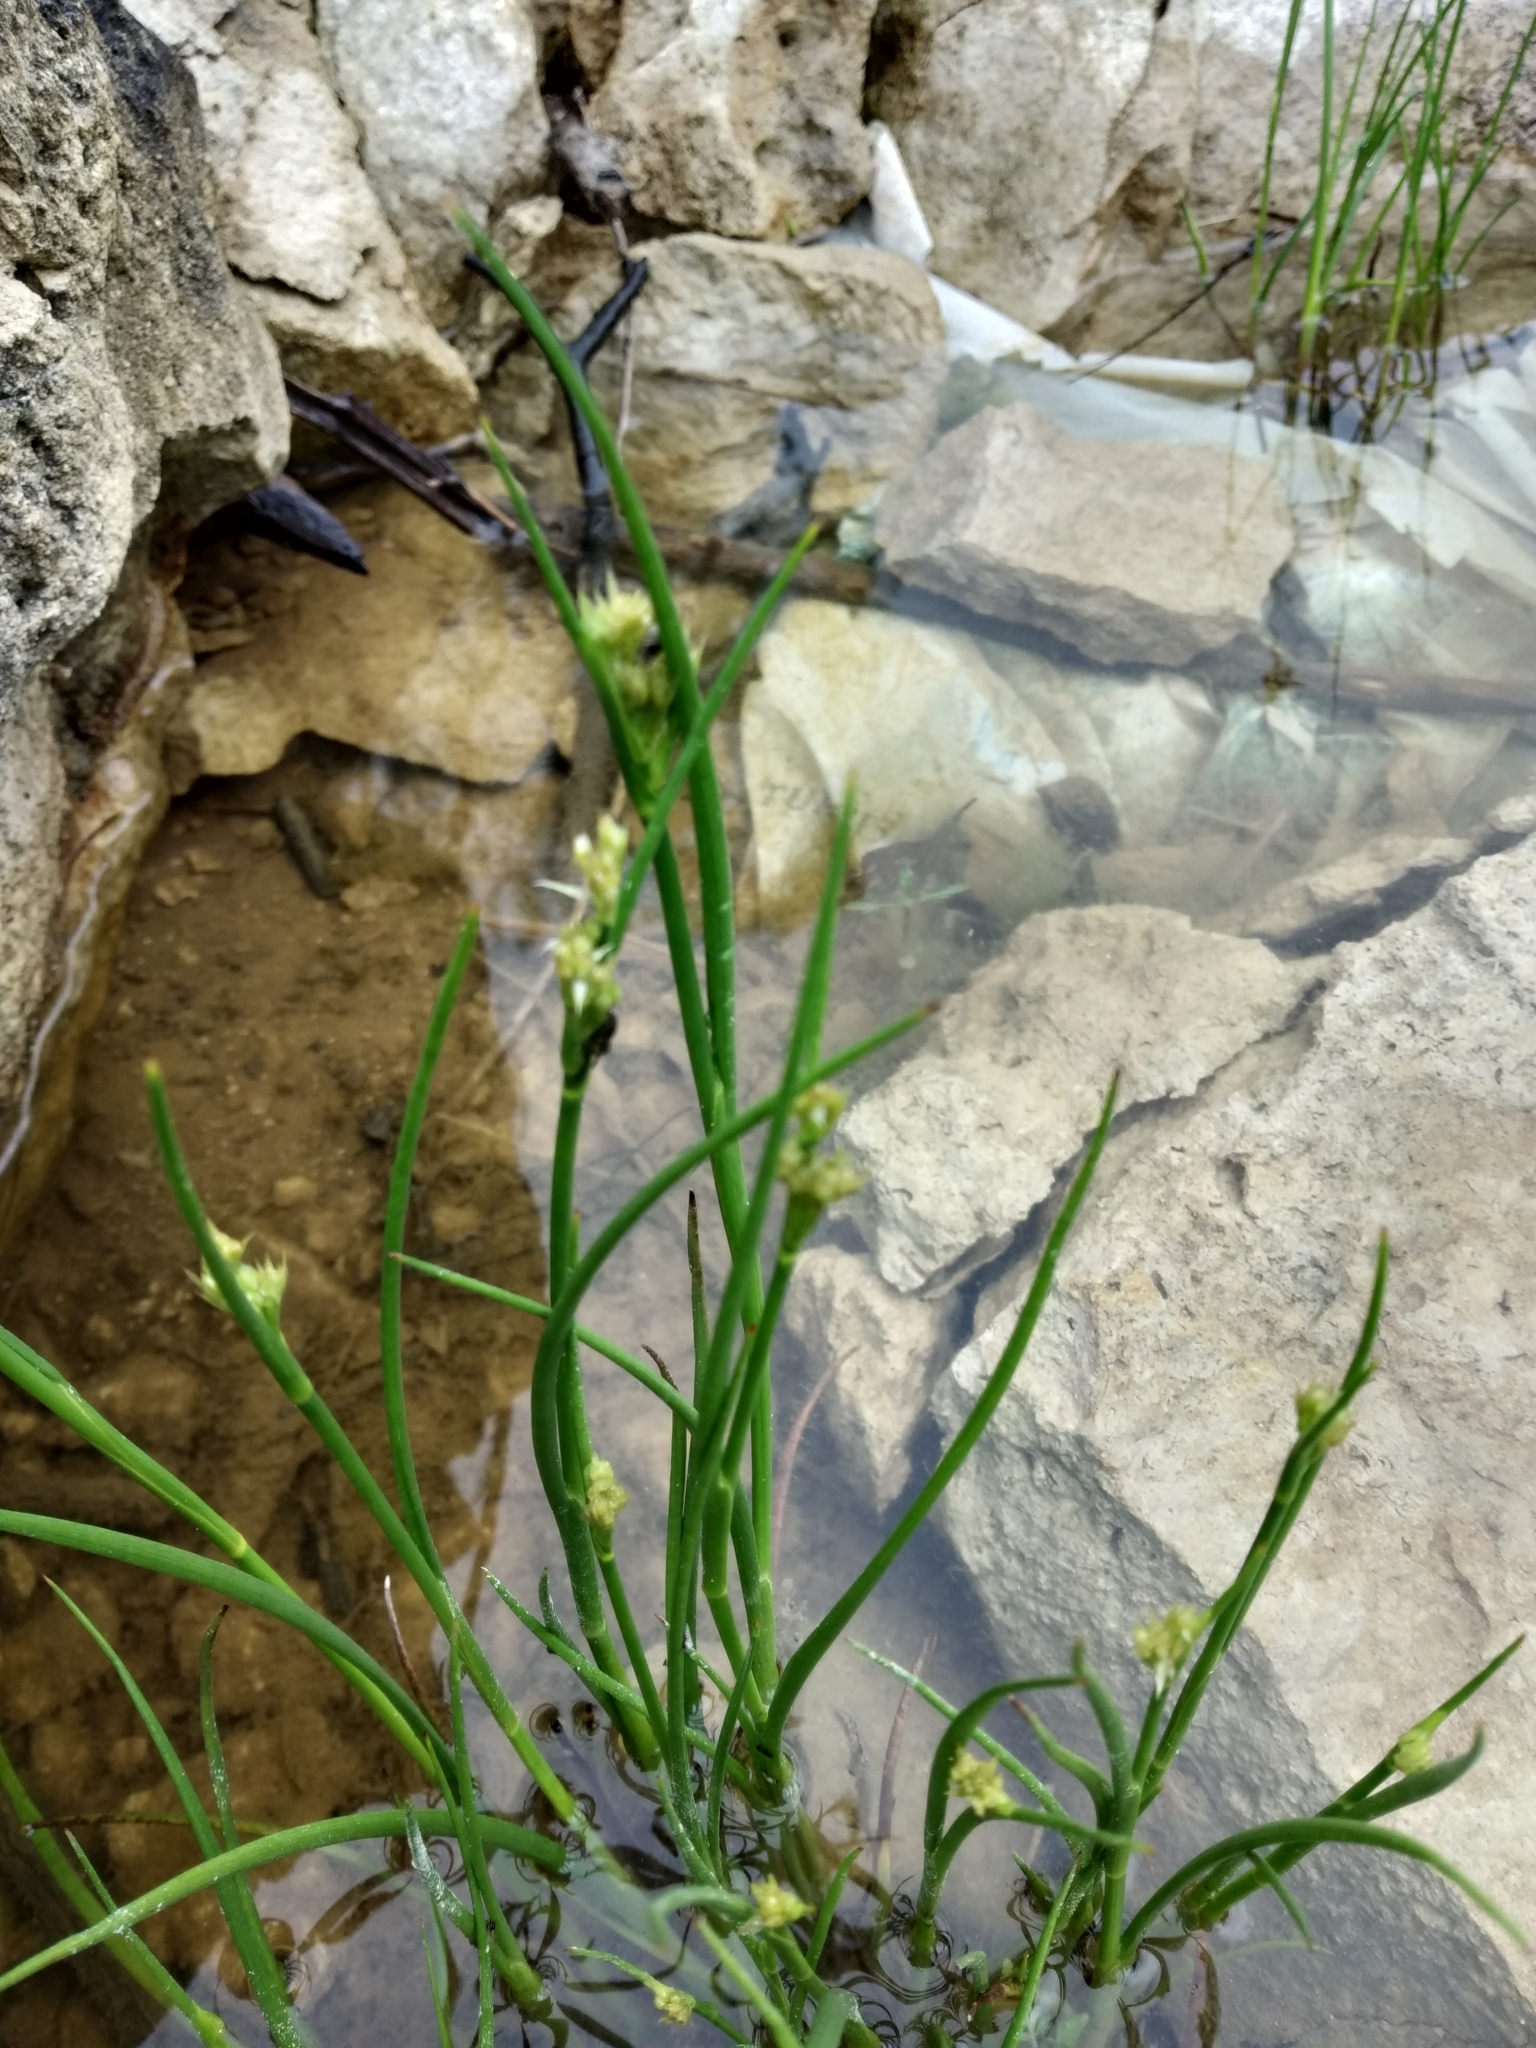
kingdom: Plantae
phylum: Tracheophyta
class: Liliopsida
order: Poales
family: Juncaceae
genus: Juncus
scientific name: Juncus articulatus
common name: Jointed rush
